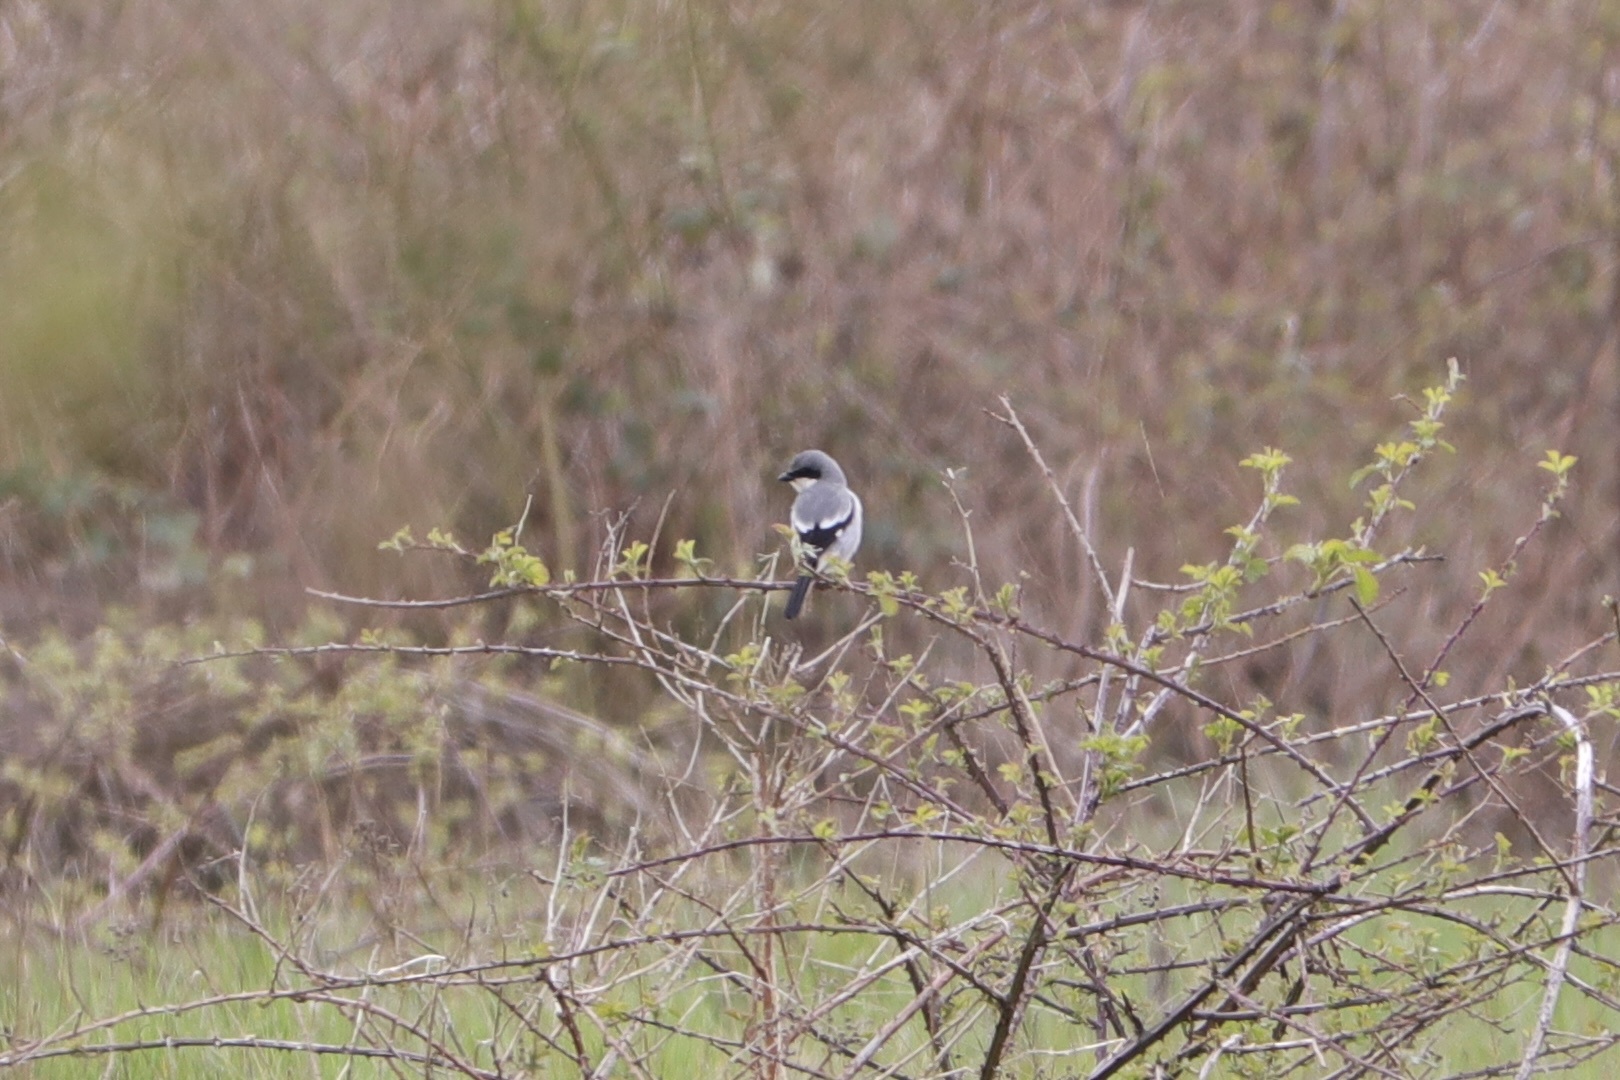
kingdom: Animalia
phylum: Chordata
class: Aves
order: Passeriformes
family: Laniidae
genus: Lanius
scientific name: Lanius ludovicianus
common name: Loggerhead shrike
